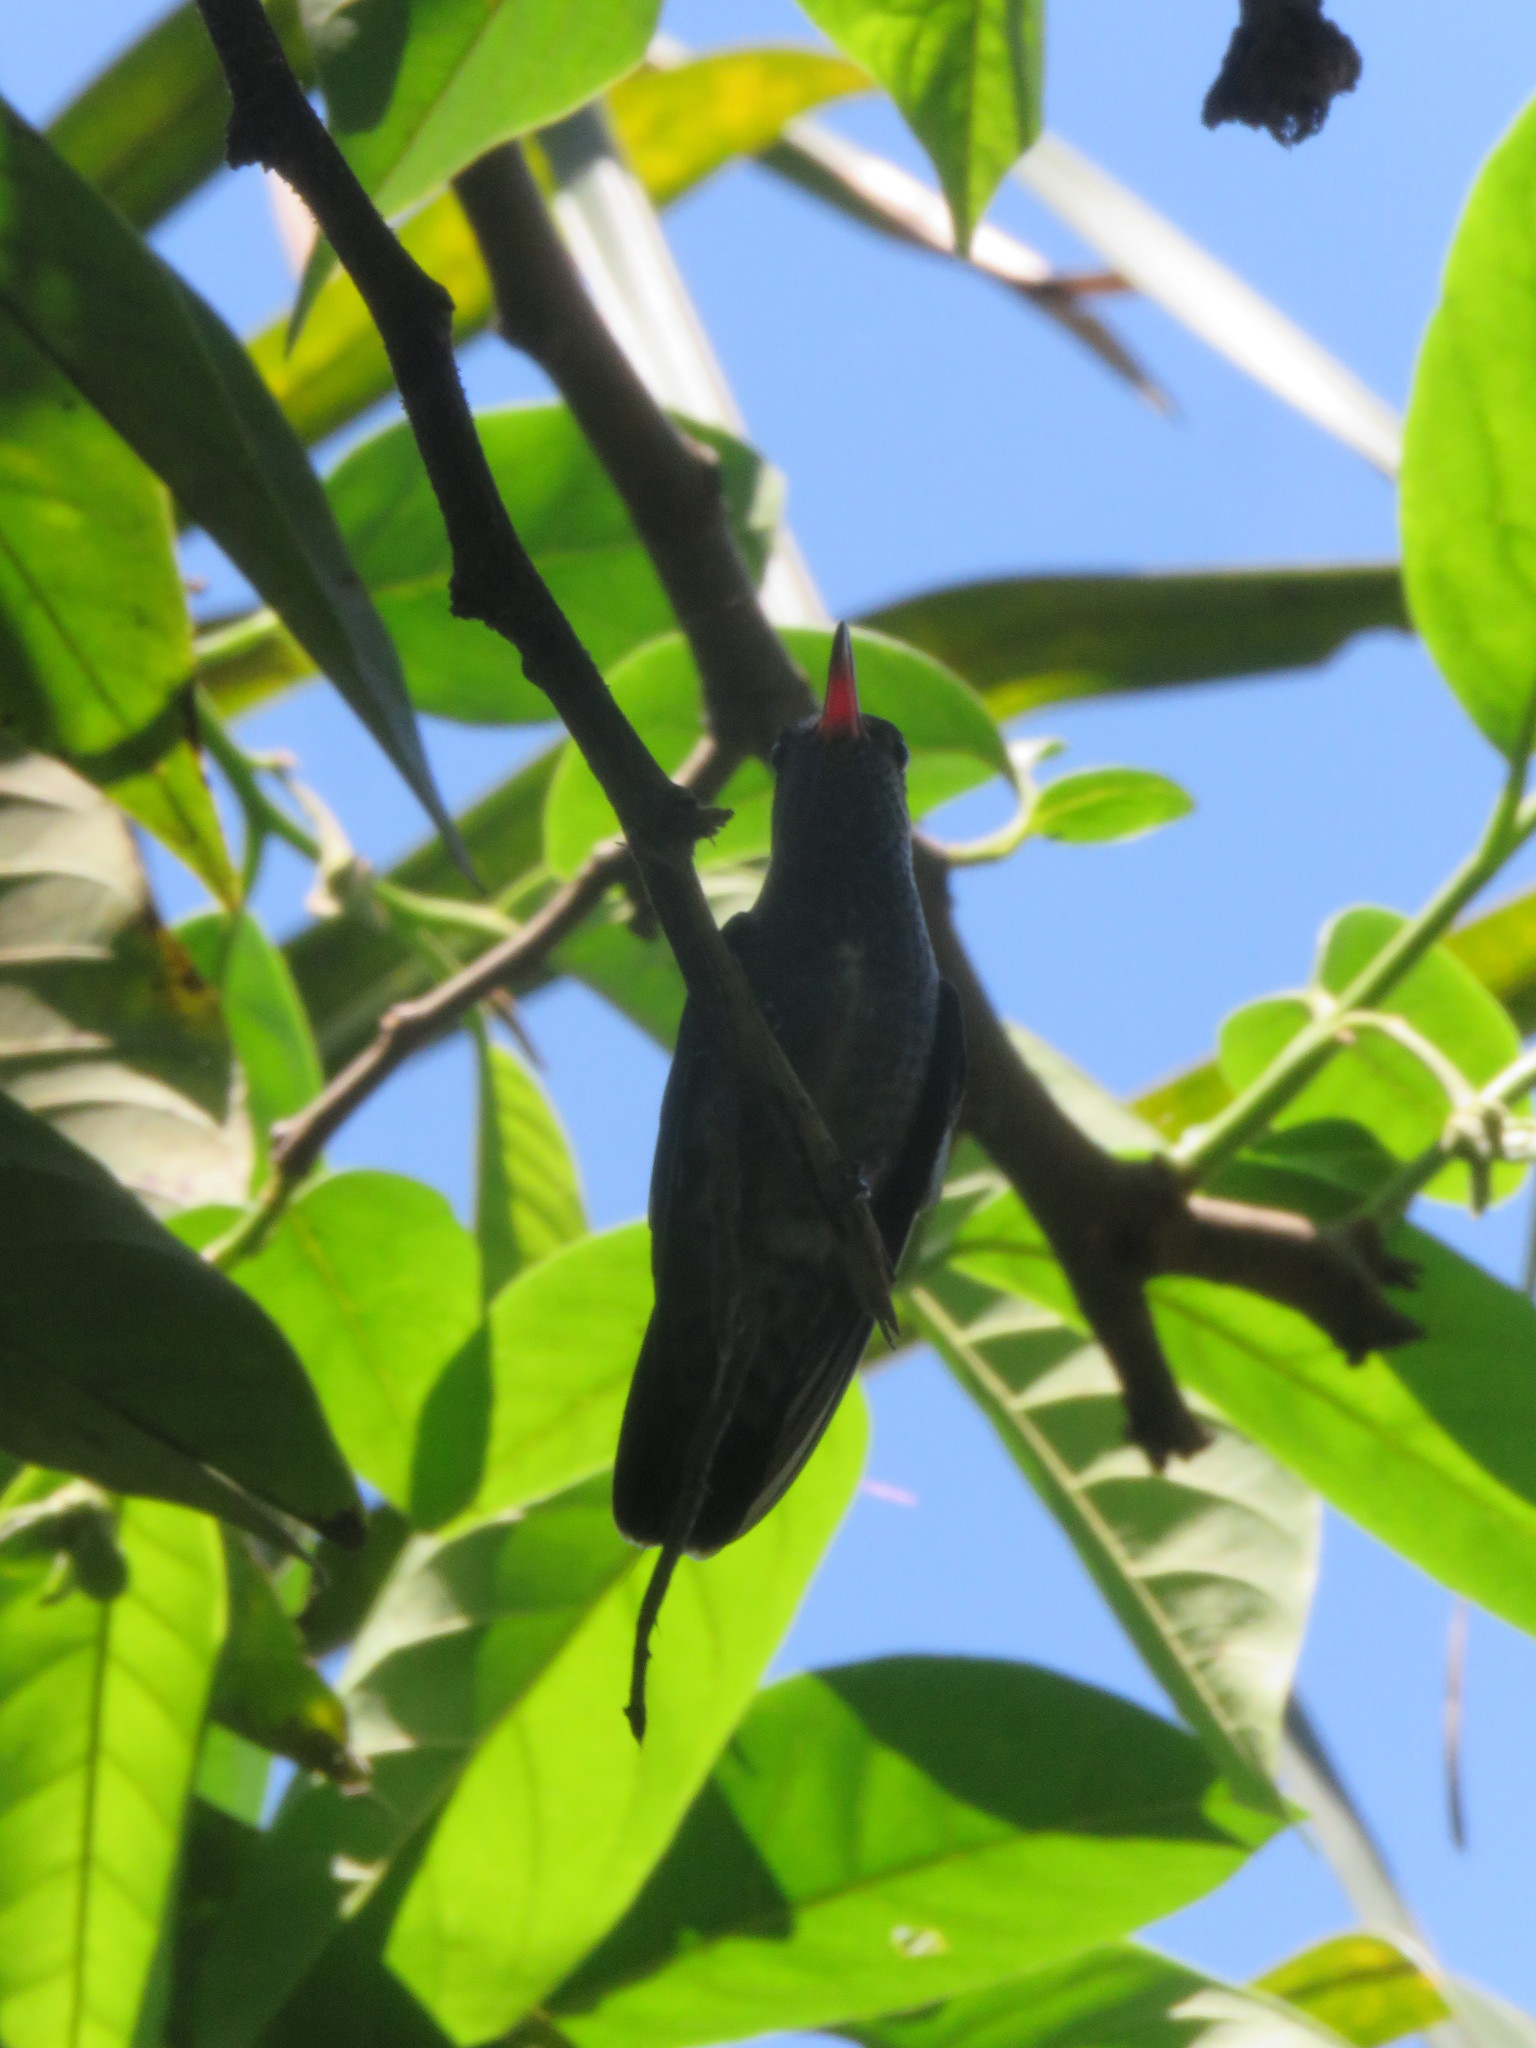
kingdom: Animalia
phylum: Chordata
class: Aves
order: Apodiformes
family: Trochilidae
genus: Chionomesa
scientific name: Chionomesa lactea
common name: Sapphire-spangled emerald
